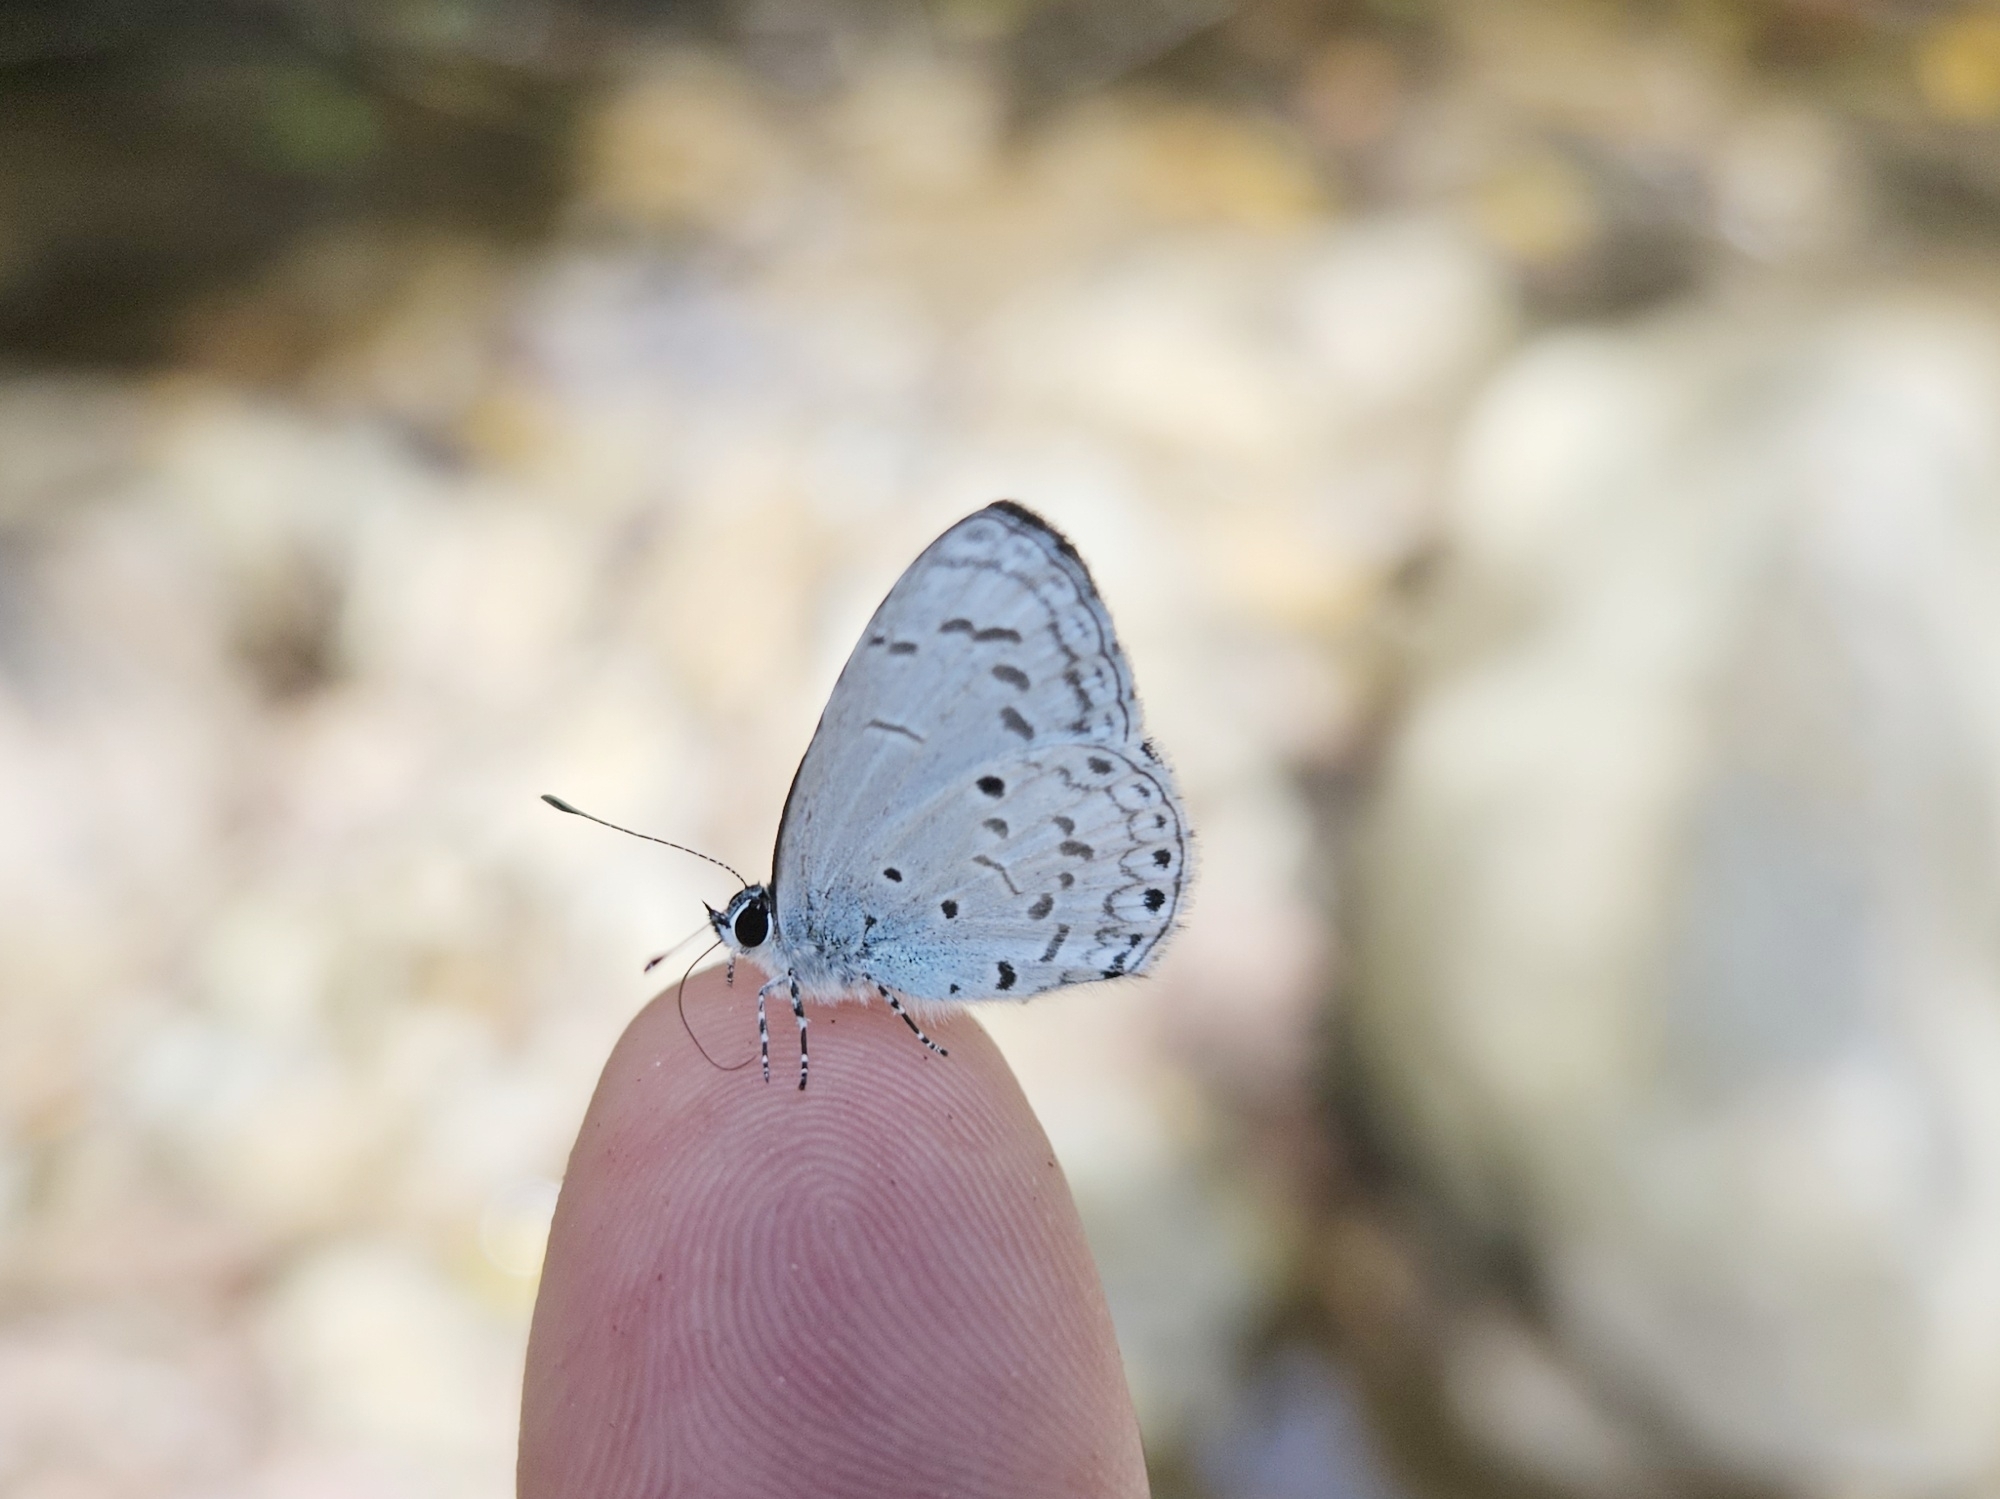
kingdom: Animalia
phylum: Arthropoda
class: Insecta
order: Lepidoptera
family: Lycaenidae
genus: Acytolepis
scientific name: Acytolepis
